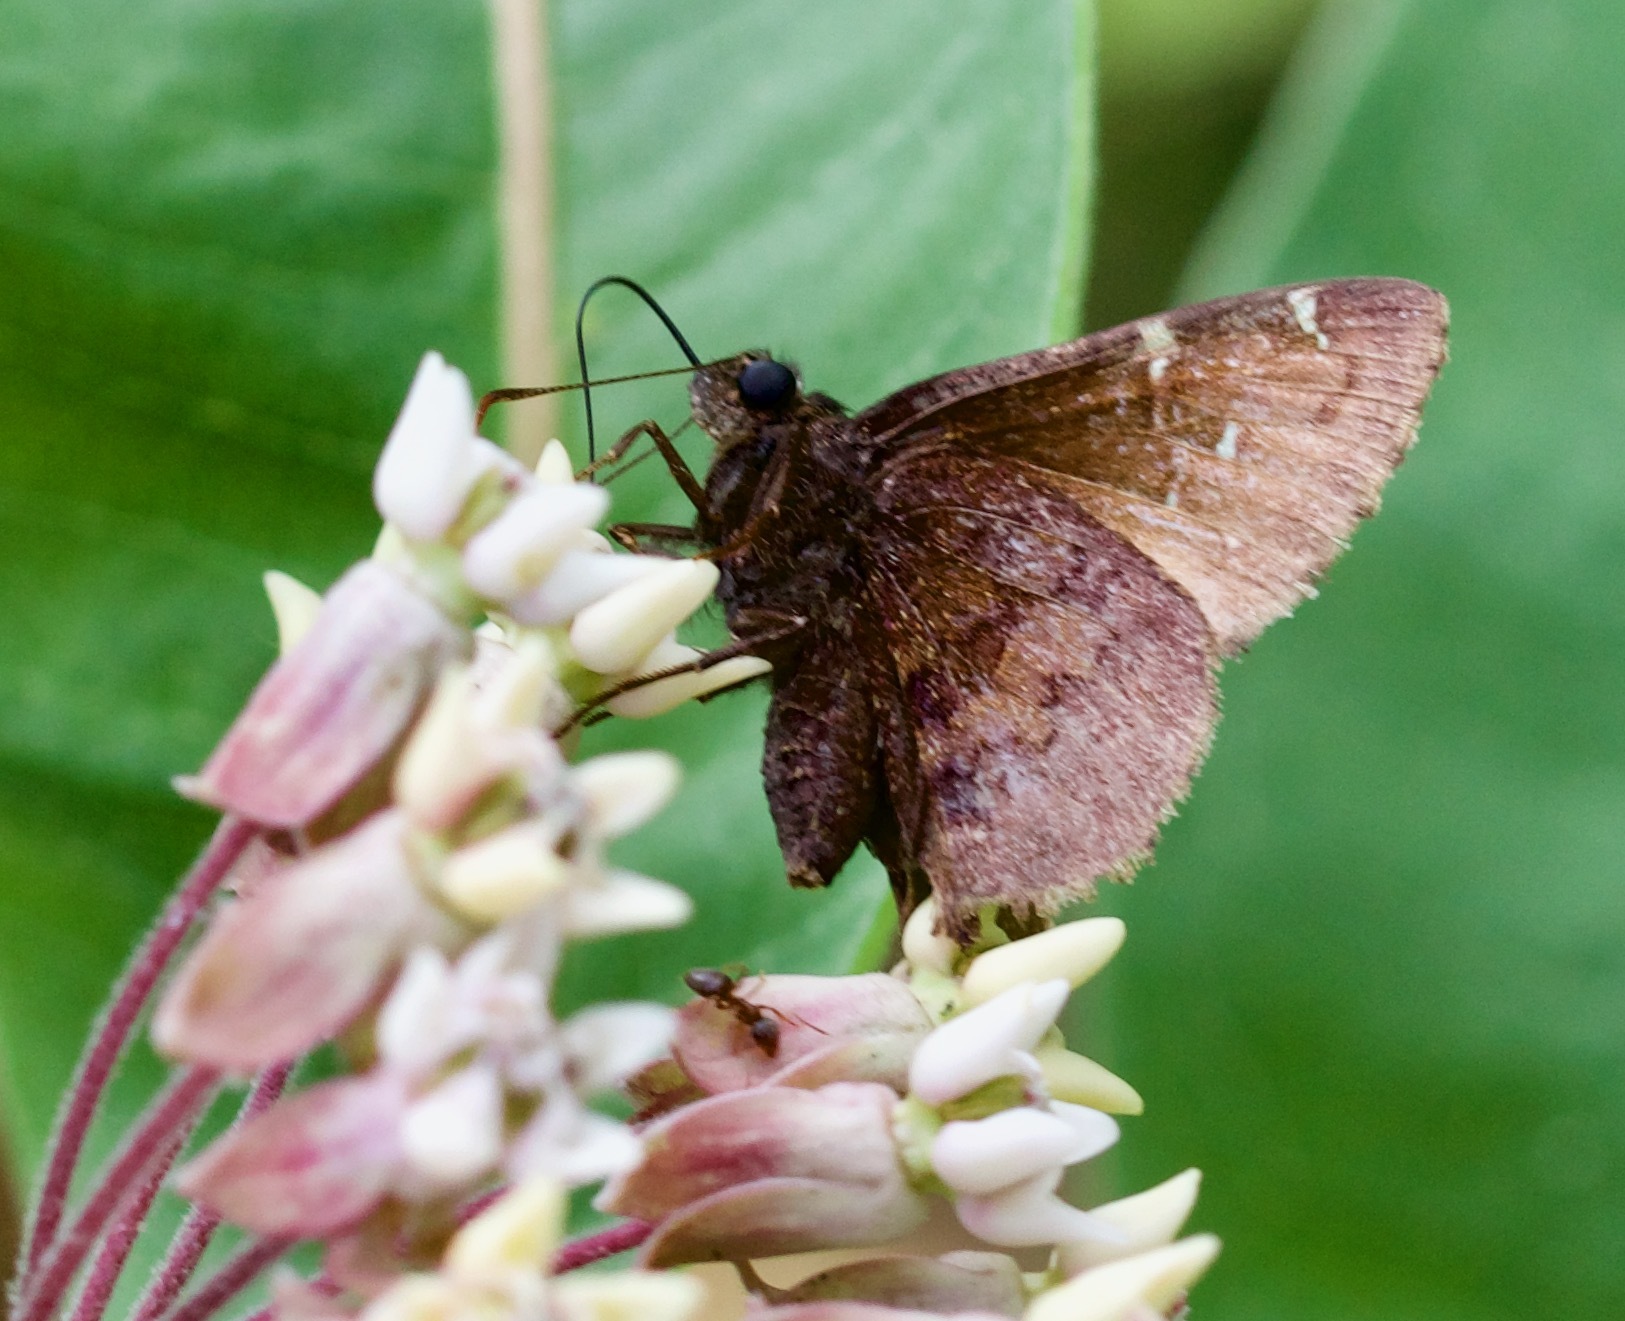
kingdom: Animalia
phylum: Arthropoda
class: Insecta
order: Lepidoptera
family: Hesperiidae
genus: Thorybes
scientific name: Thorybes pylades
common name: Northern cloudywing
